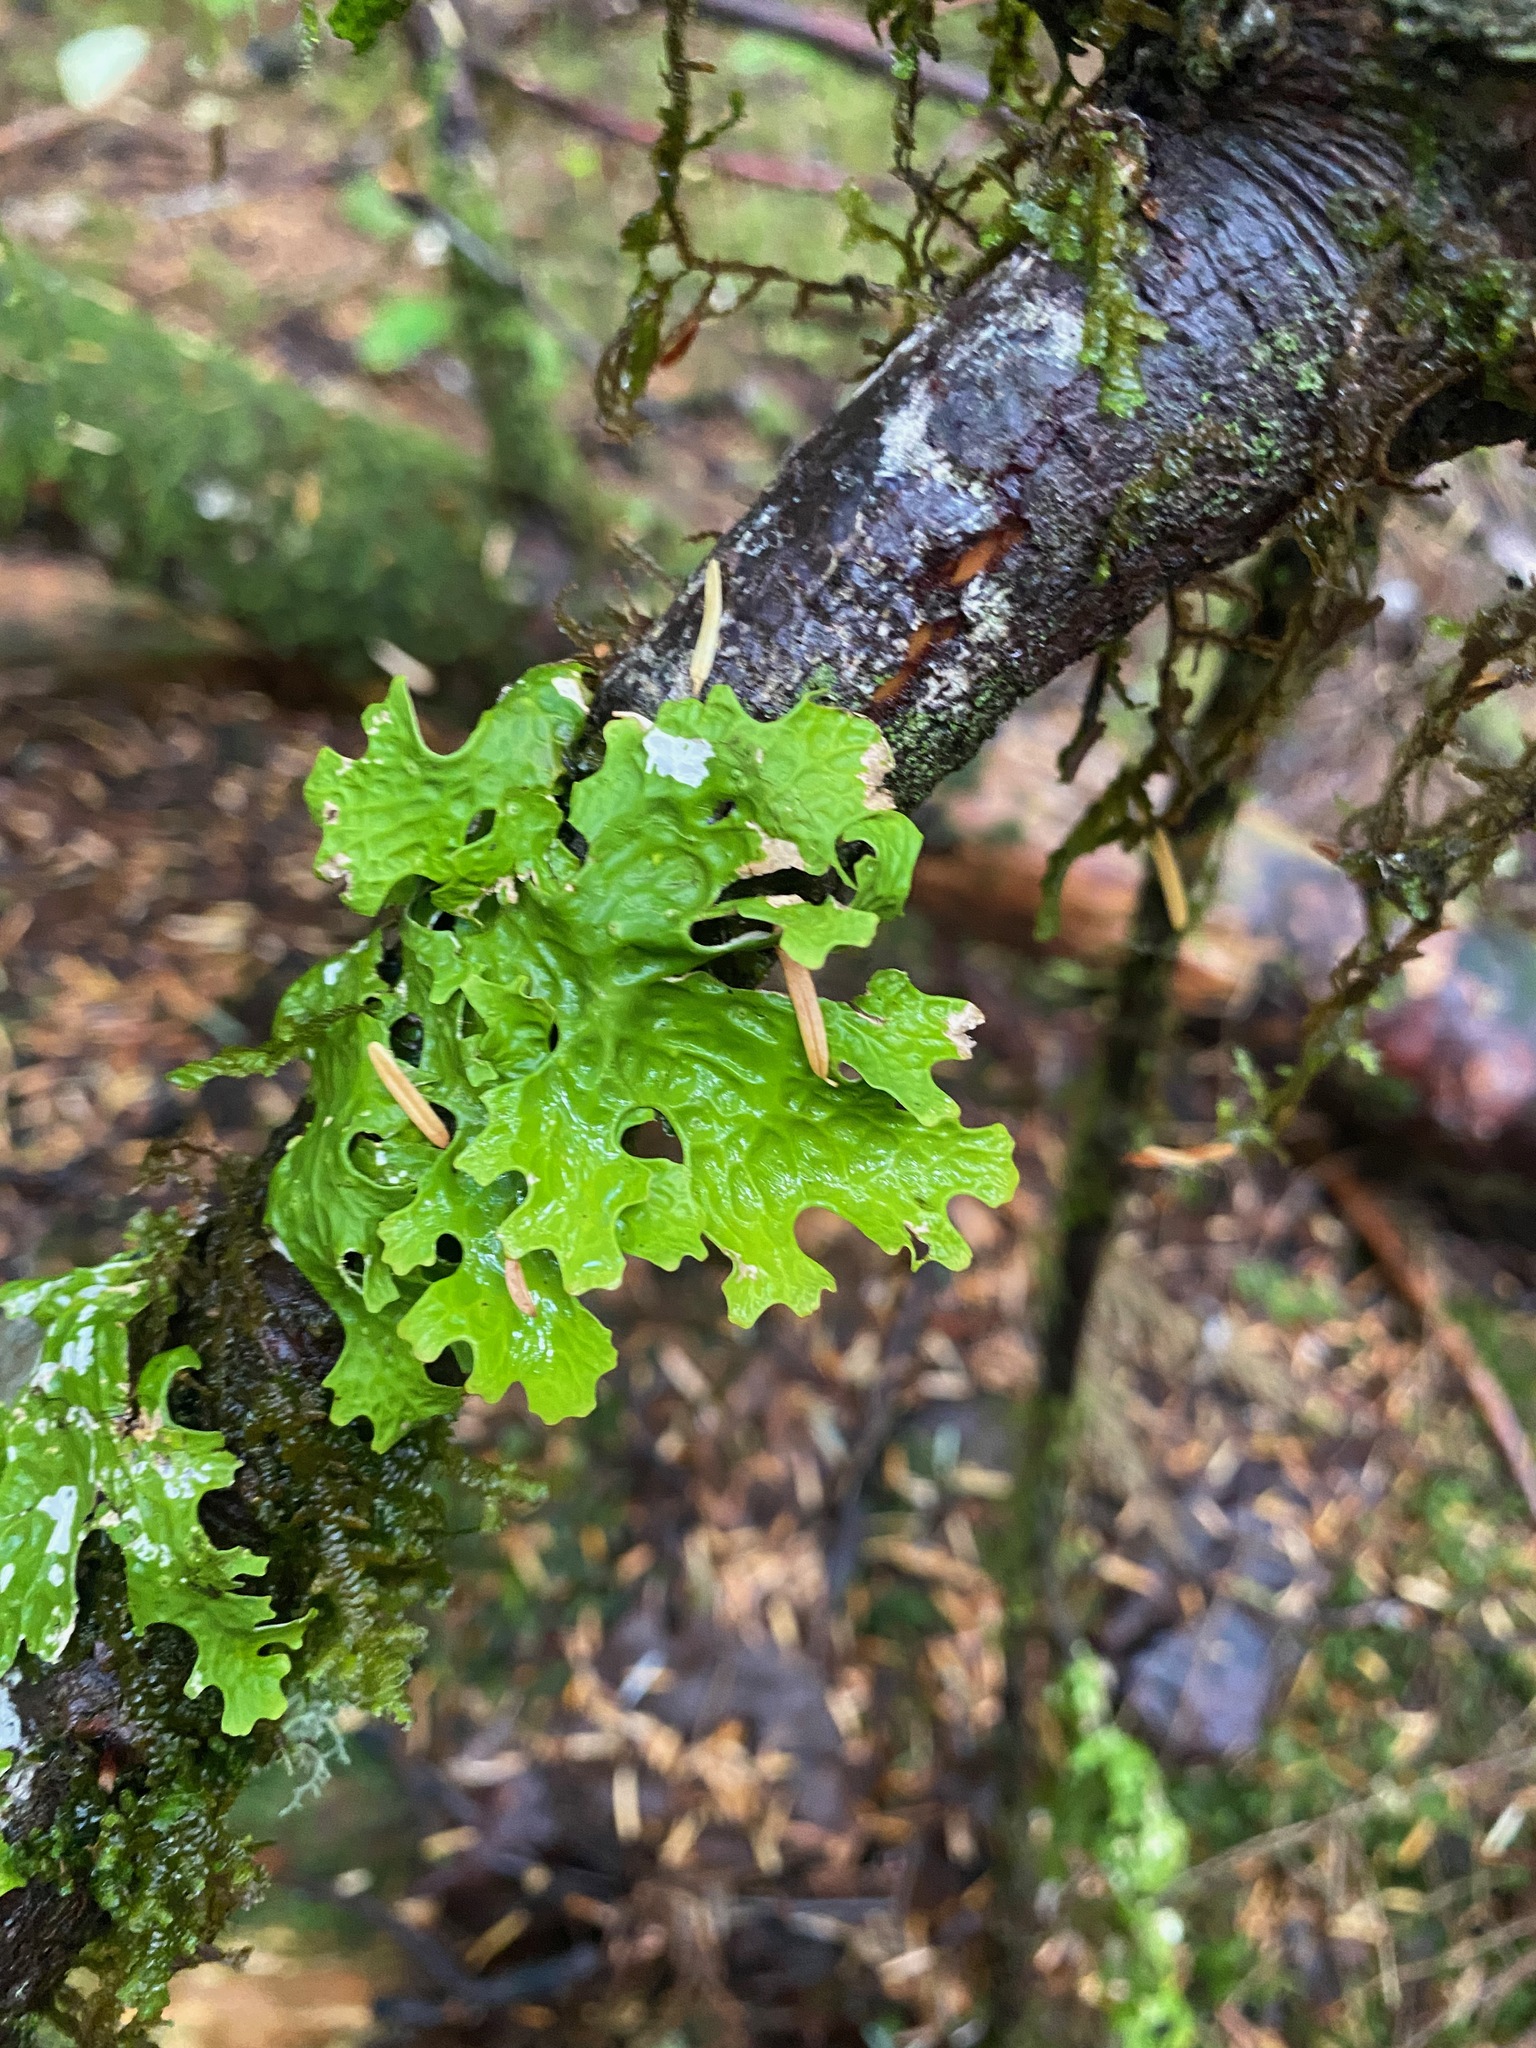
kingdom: Fungi
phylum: Ascomycota
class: Lecanoromycetes
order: Peltigerales
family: Lobariaceae
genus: Lobaria
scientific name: Lobaria pulmonaria
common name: Lungwort
